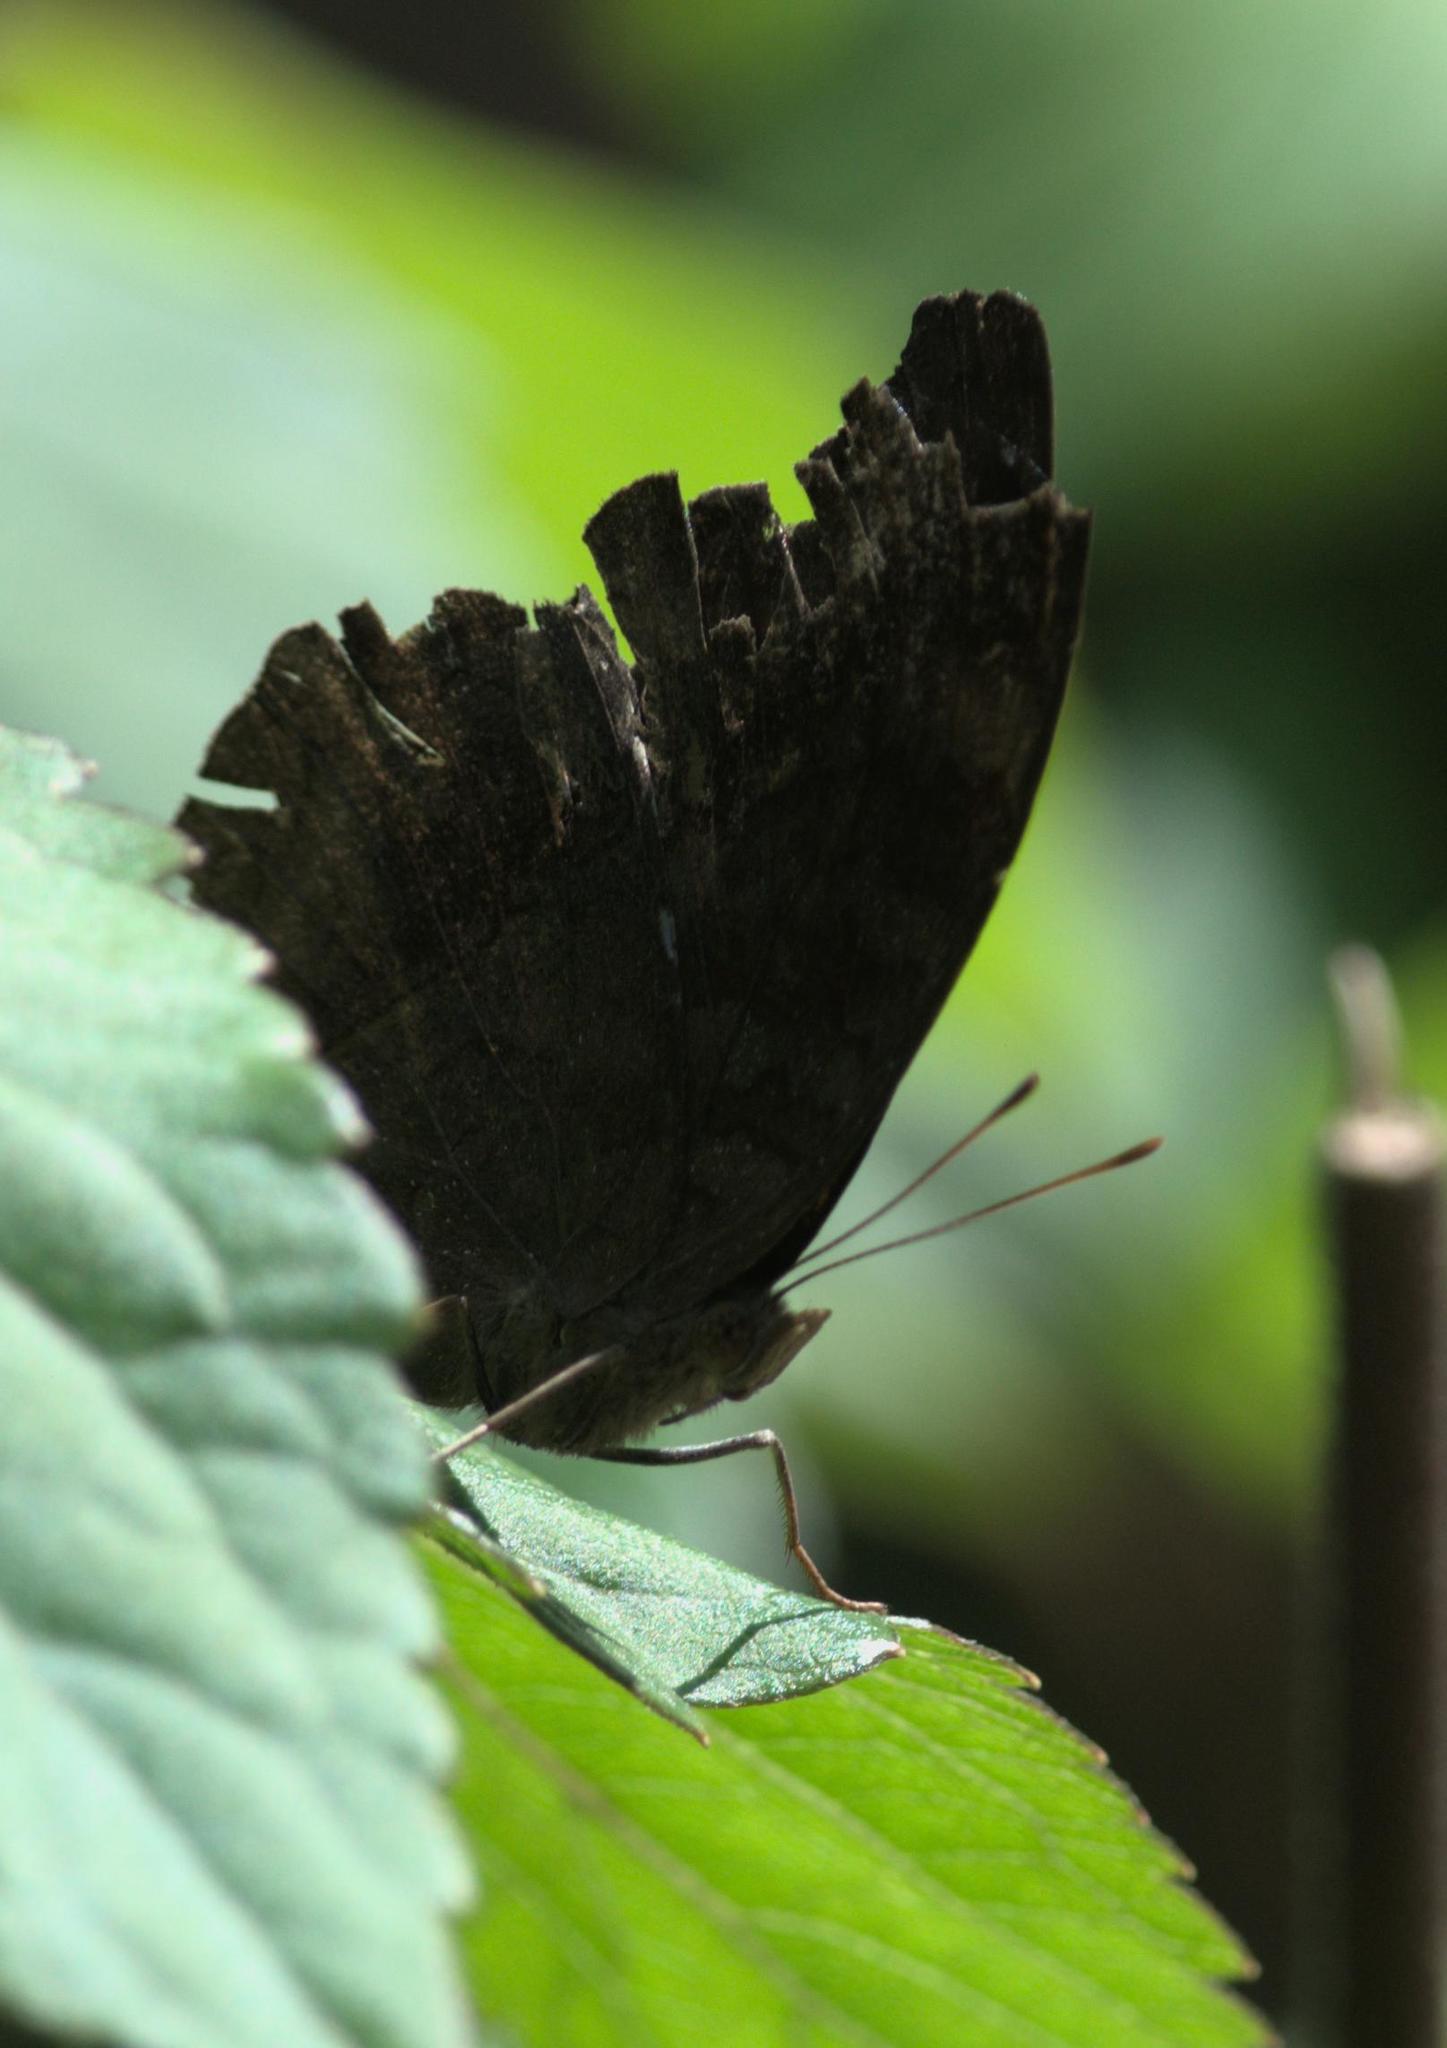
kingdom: Animalia
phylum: Arthropoda
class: Insecta
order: Lepidoptera
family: Nymphalidae
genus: Junonia
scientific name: Junonia iphita
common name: Chocolate pansy
